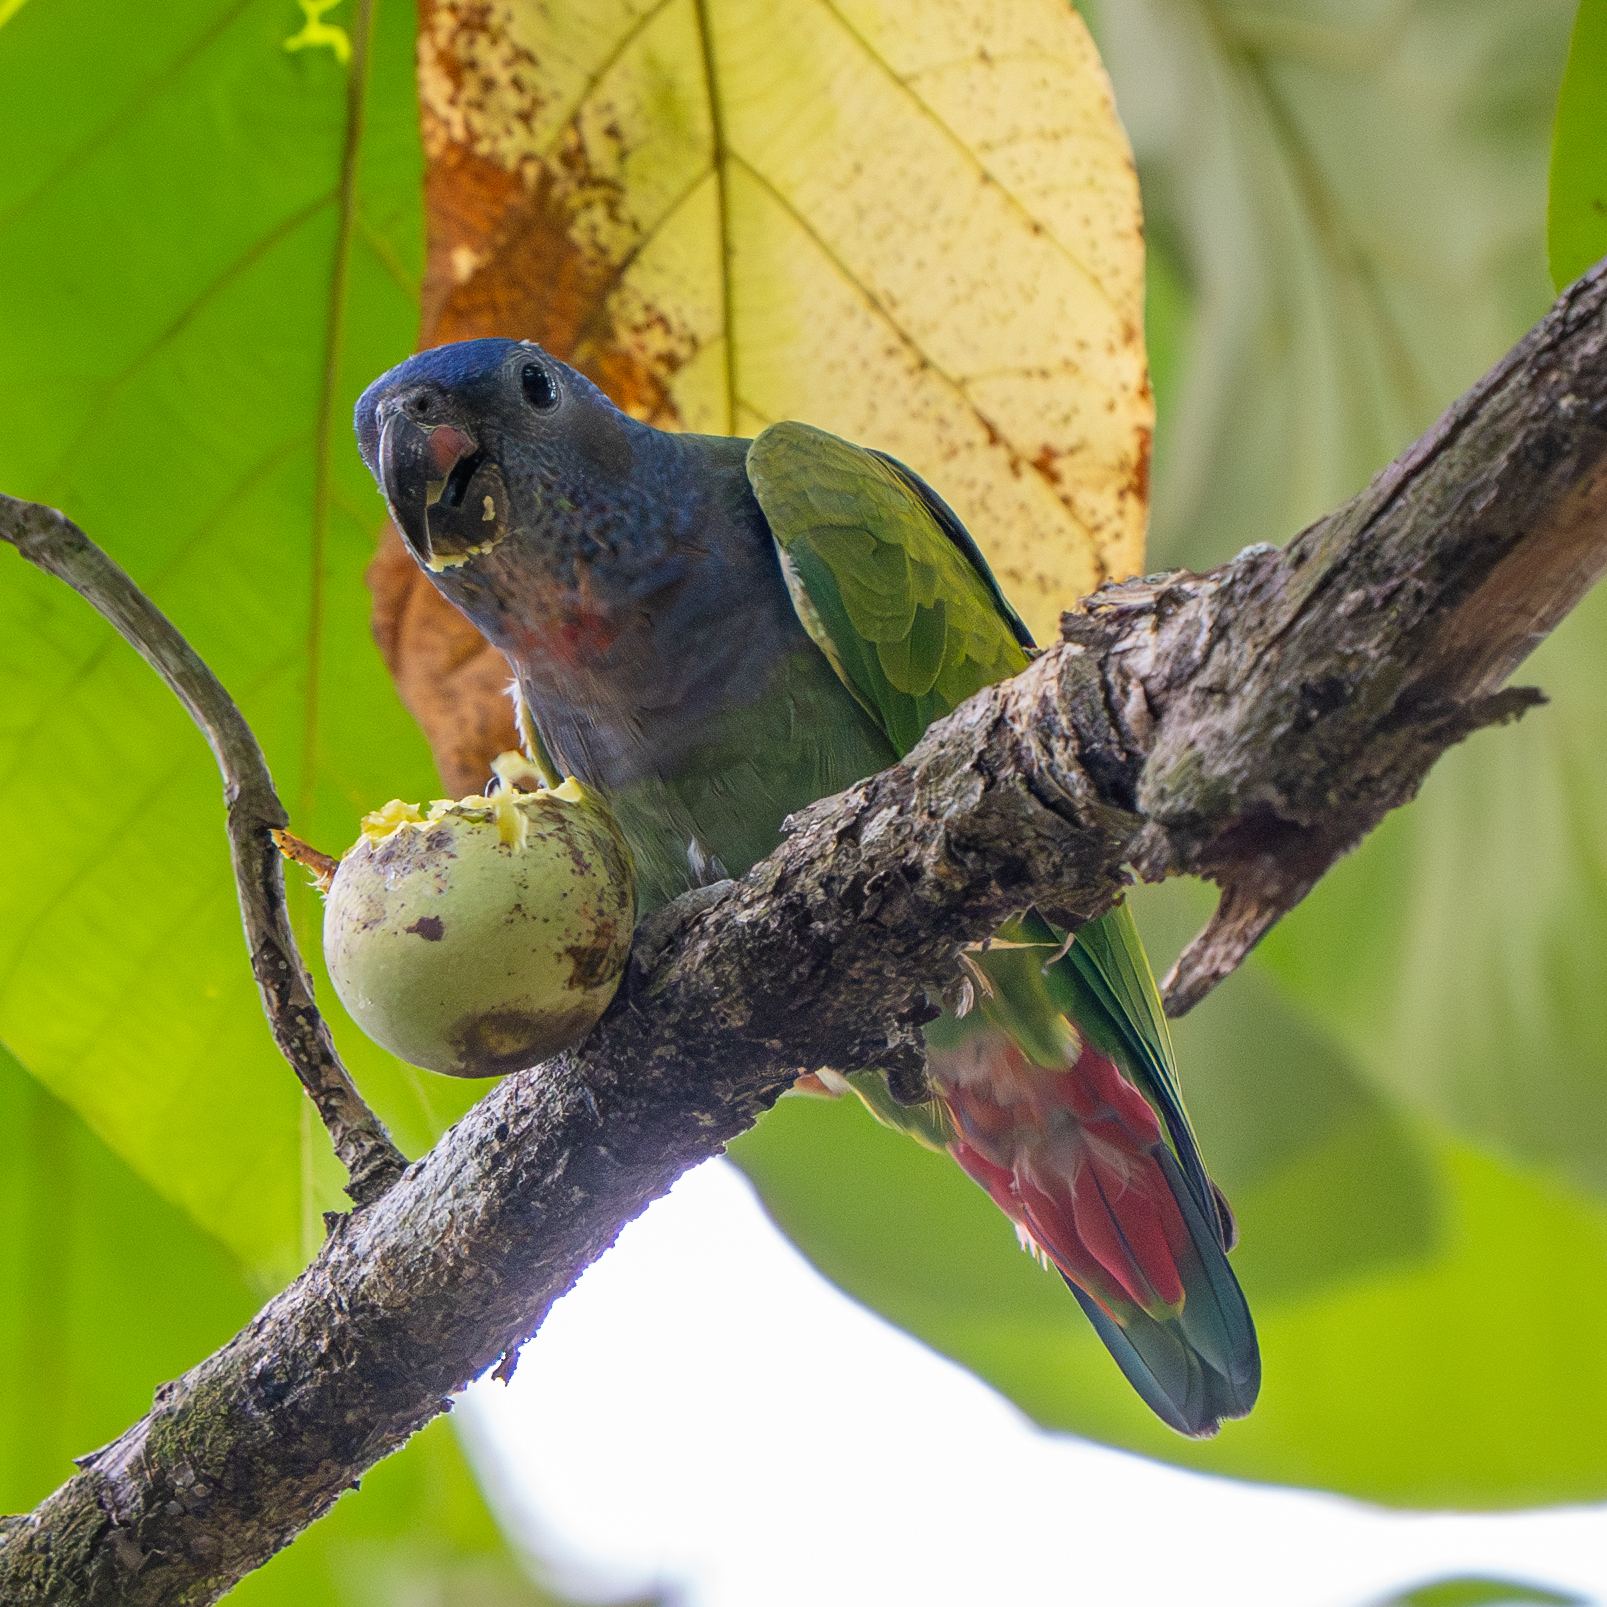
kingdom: Animalia
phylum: Chordata
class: Aves
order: Psittaciformes
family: Psittacidae
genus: Pionus
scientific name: Pionus menstruus
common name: Blue-headed parrot
